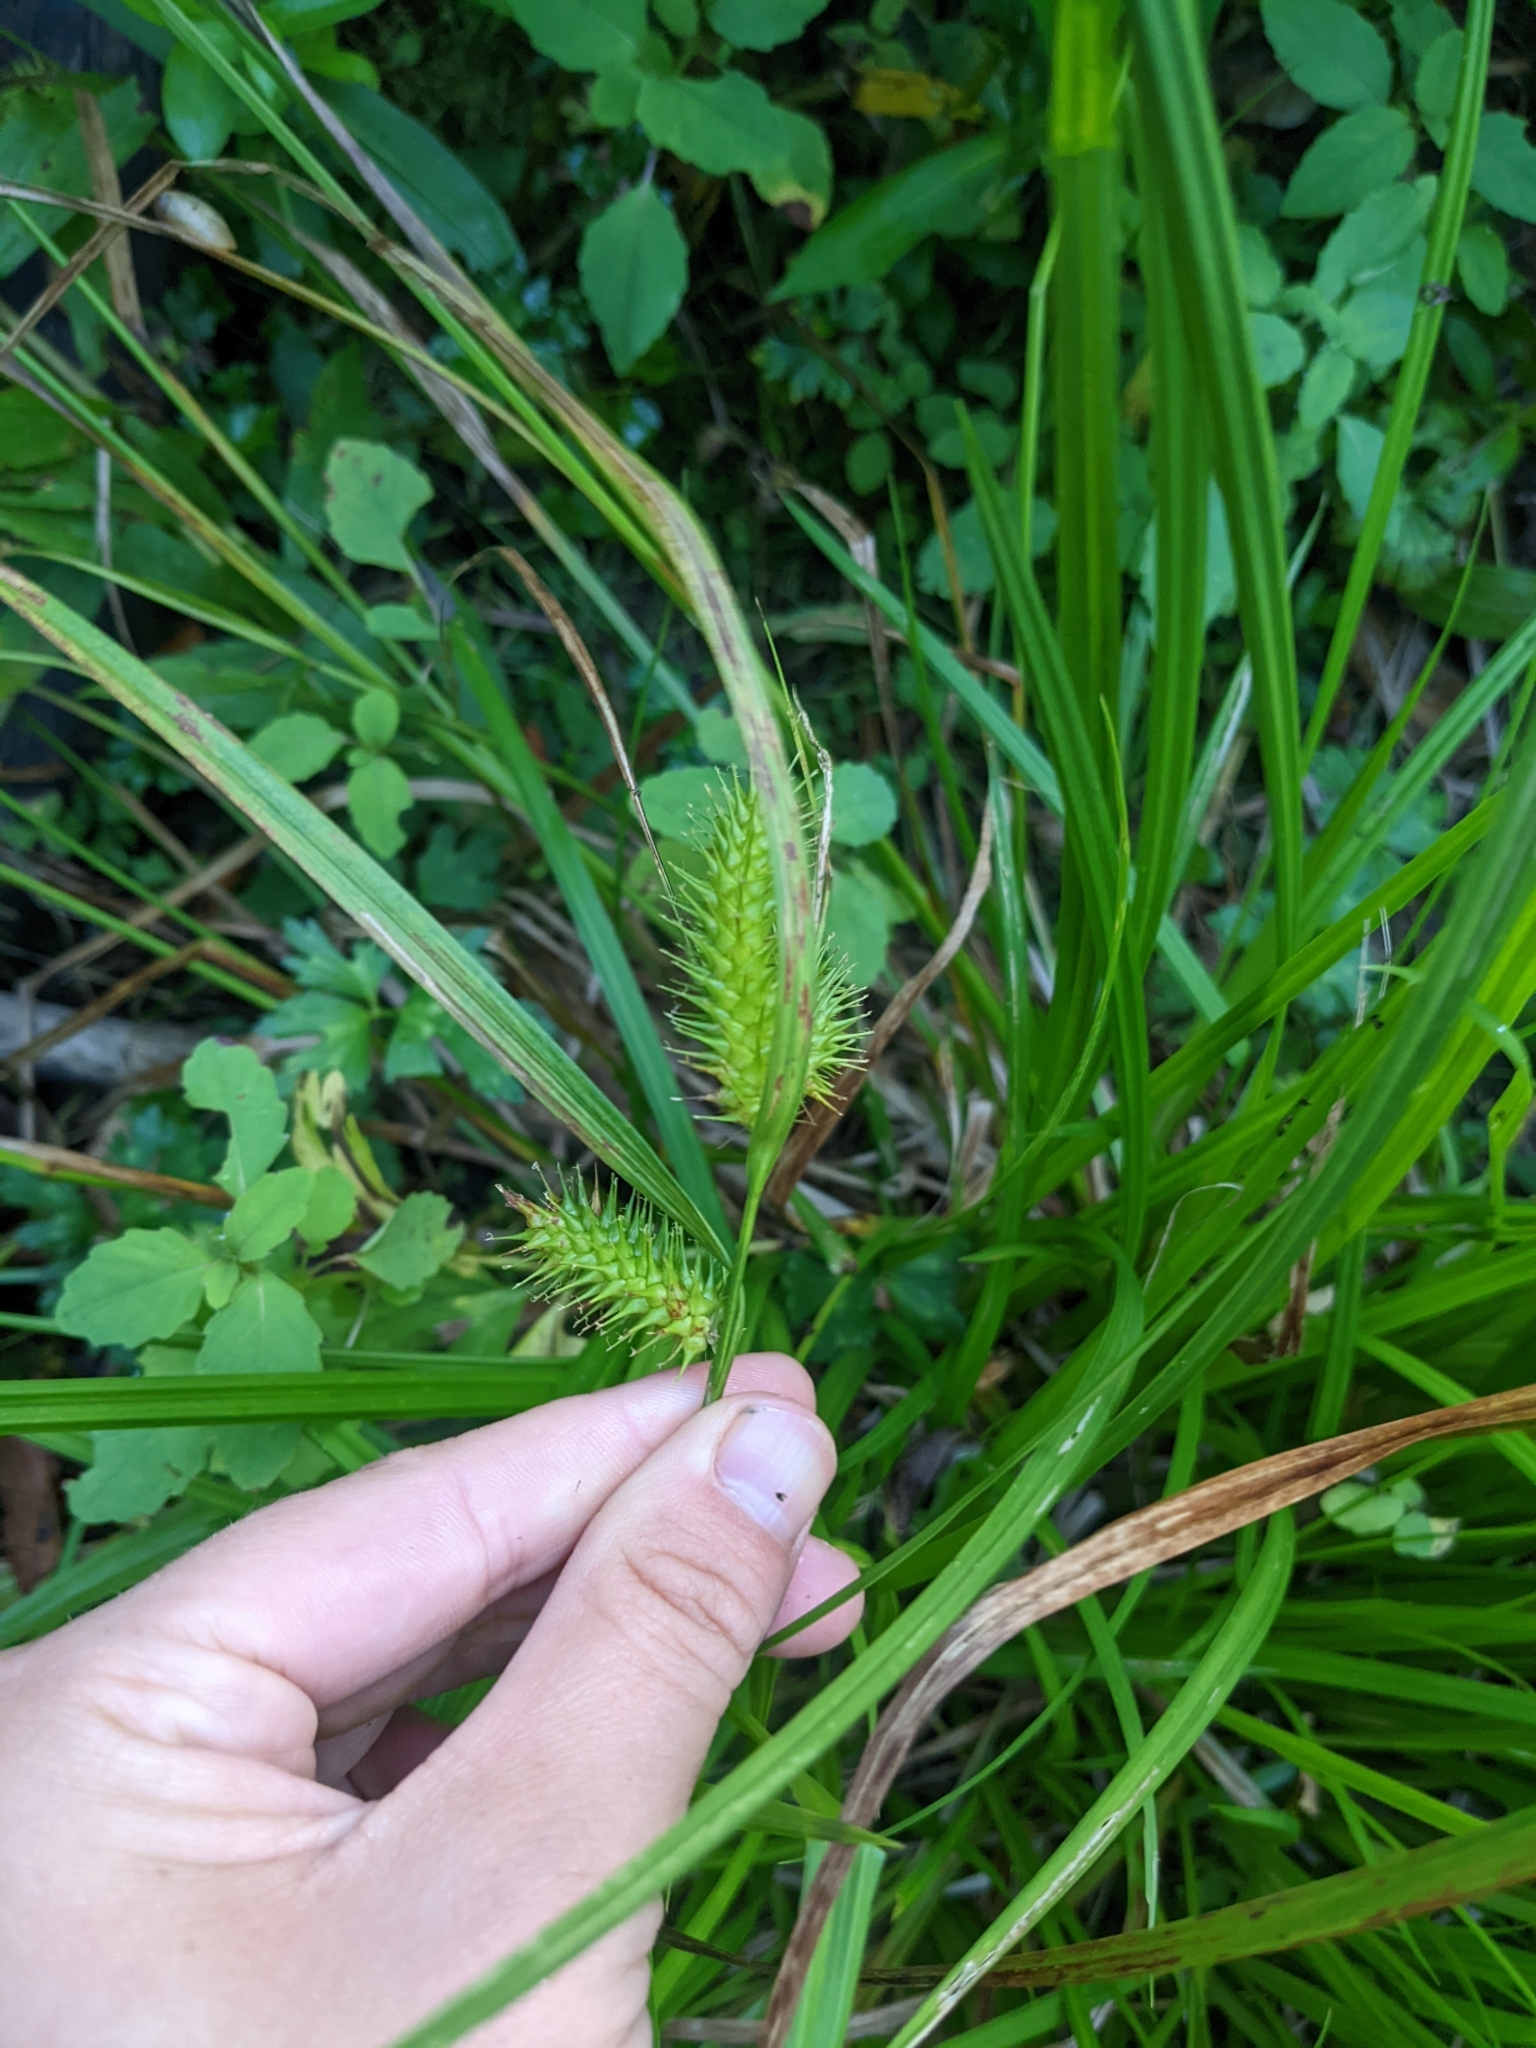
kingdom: Plantae
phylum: Tracheophyta
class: Liliopsida
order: Poales
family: Cyperaceae
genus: Carex
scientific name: Carex lurida
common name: Sallow sedge
